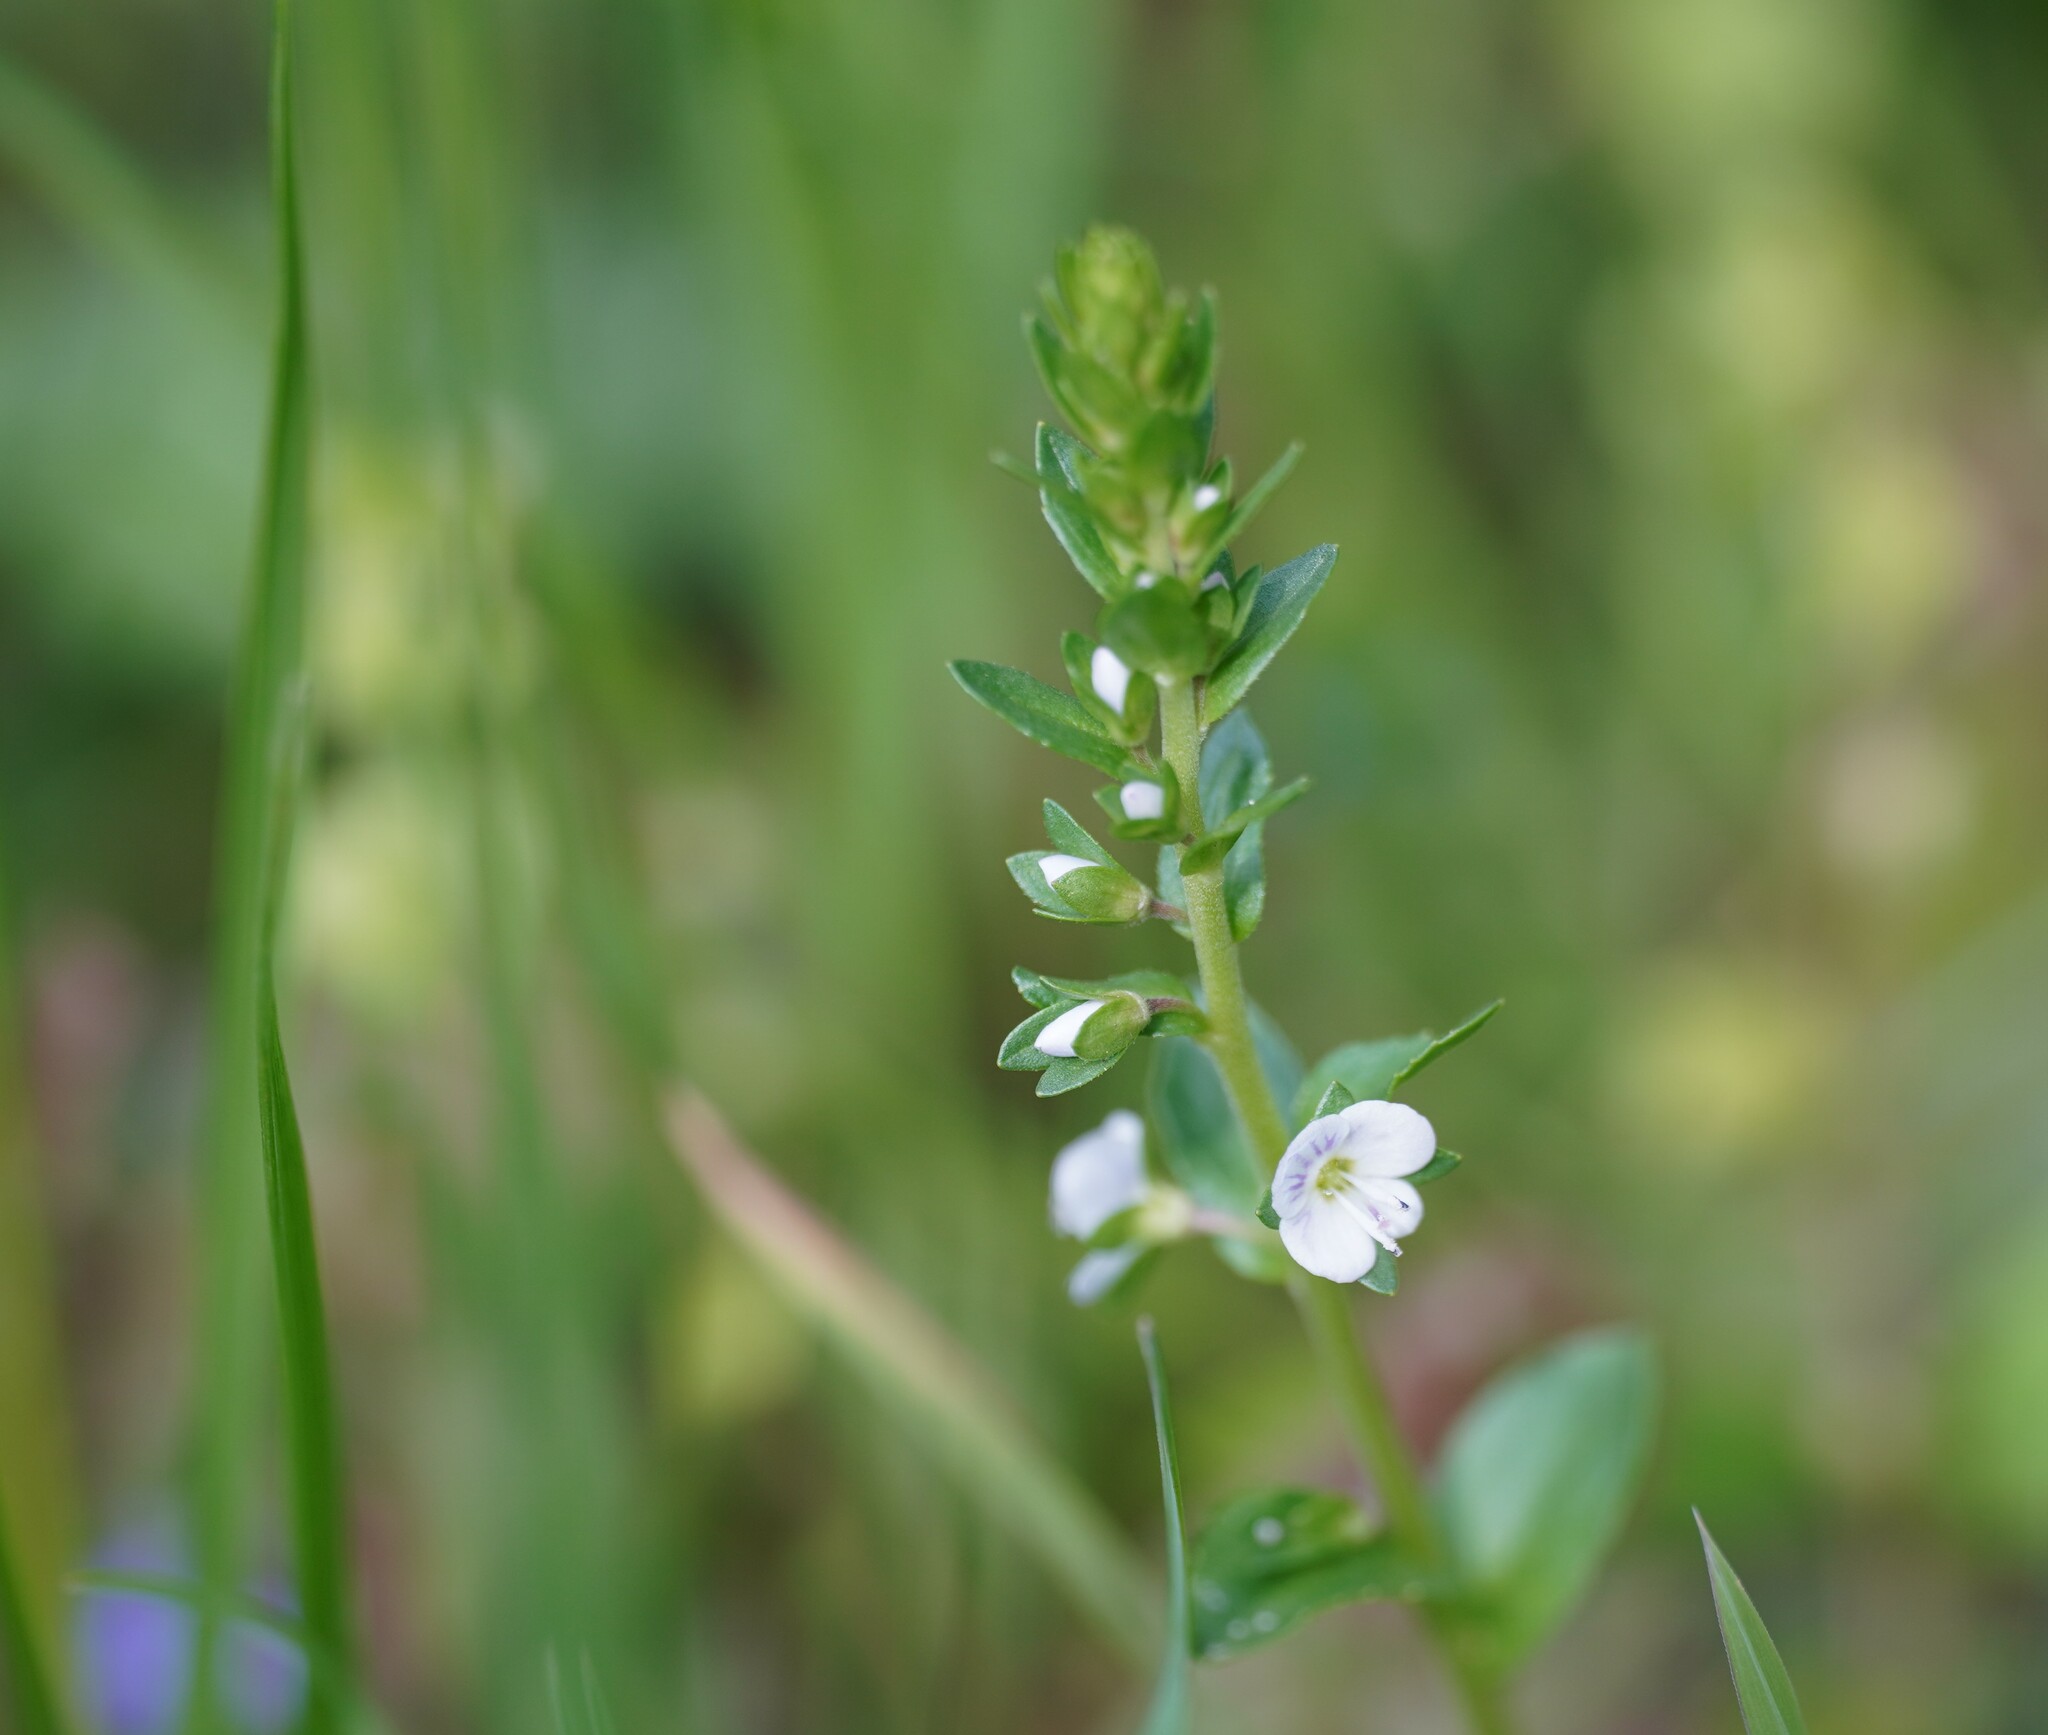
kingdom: Plantae
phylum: Tracheophyta
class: Magnoliopsida
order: Lamiales
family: Plantaginaceae
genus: Veronica
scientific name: Veronica serpyllifolia
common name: Thyme-leaved speedwell
